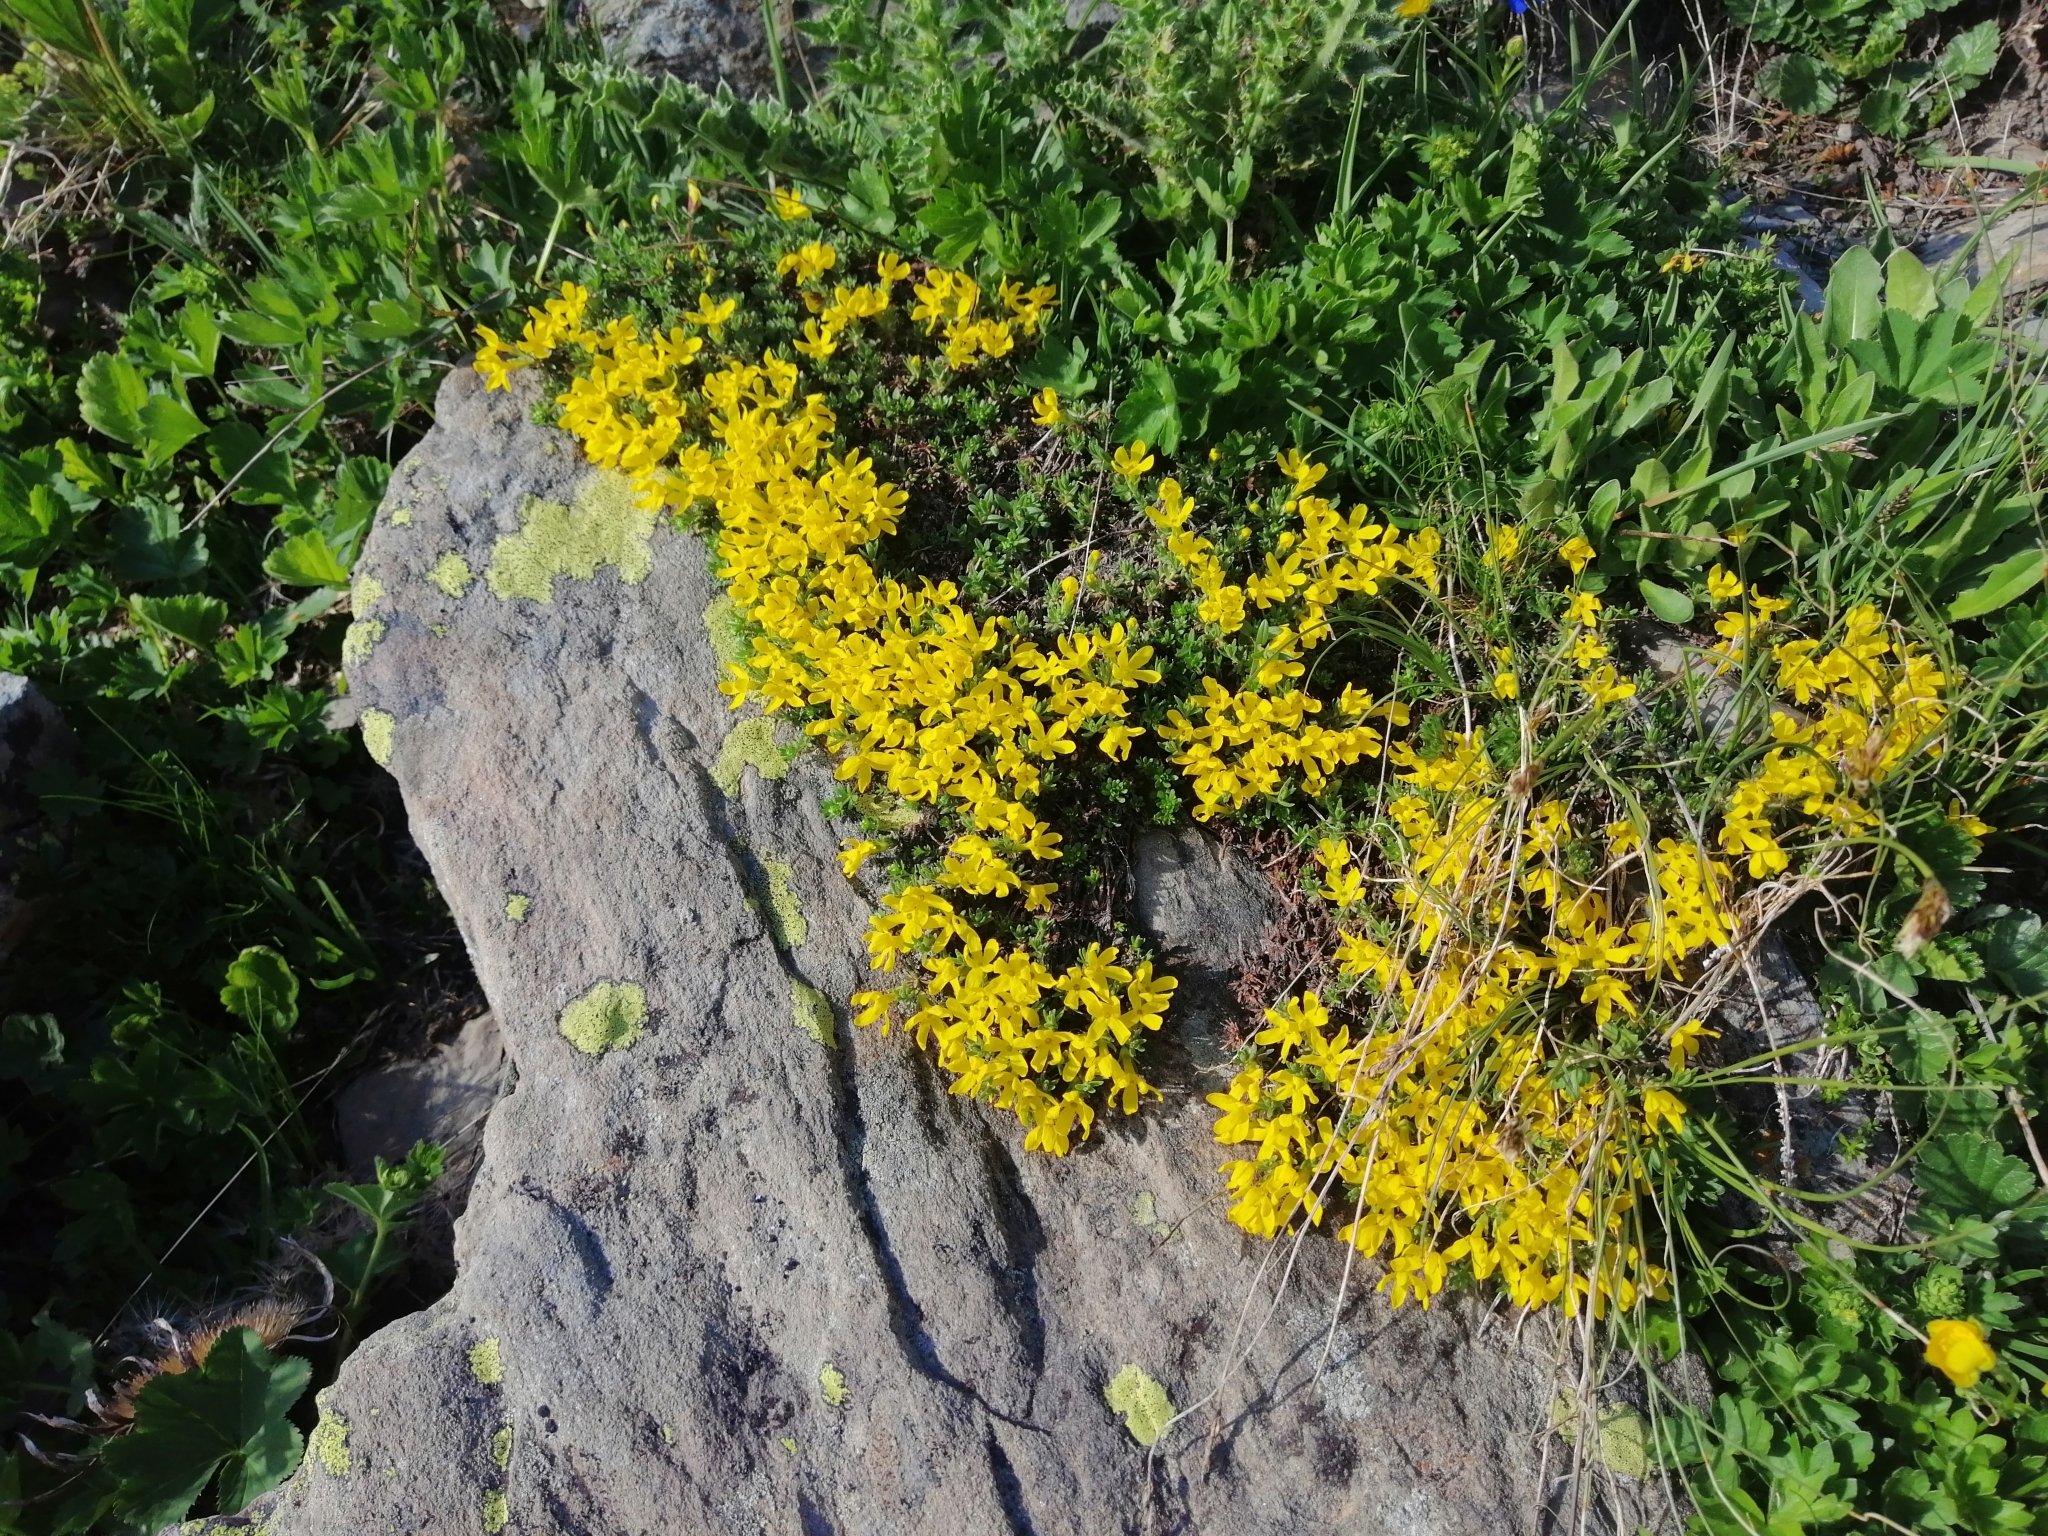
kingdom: Plantae
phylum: Tracheophyta
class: Magnoliopsida
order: Ericales
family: Primulaceae
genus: Androsace
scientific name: Androsace vitaliana
